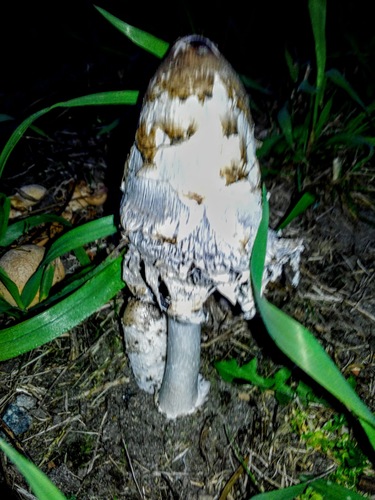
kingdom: Fungi
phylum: Basidiomycota
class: Agaricomycetes
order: Agaricales
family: Agaricaceae
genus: Coprinus
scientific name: Coprinus comatus
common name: Lawyer's wig
